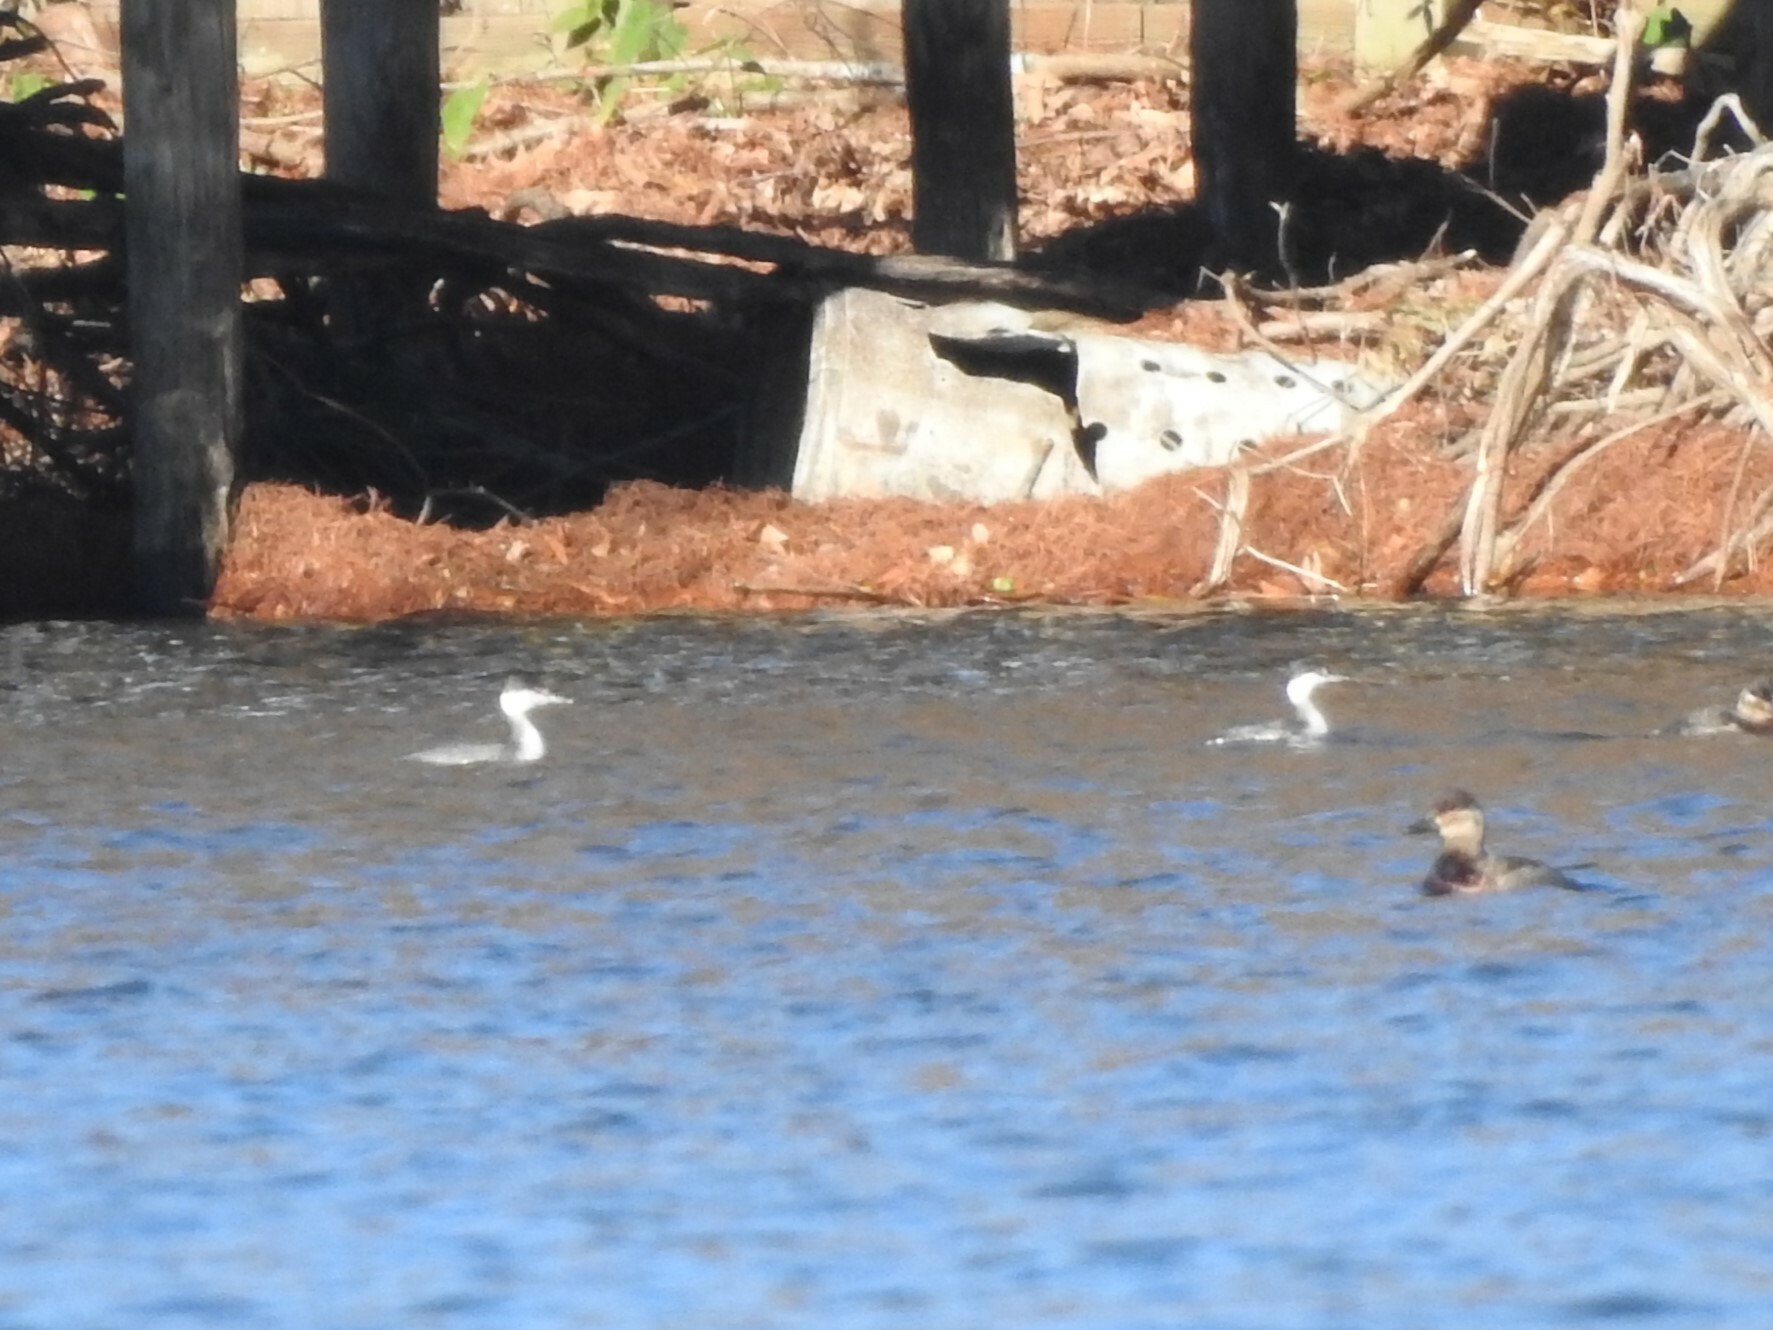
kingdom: Animalia
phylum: Chordata
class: Aves
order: Podicipediformes
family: Podicipedidae
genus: Podiceps
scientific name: Podiceps auritus
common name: Horned grebe
